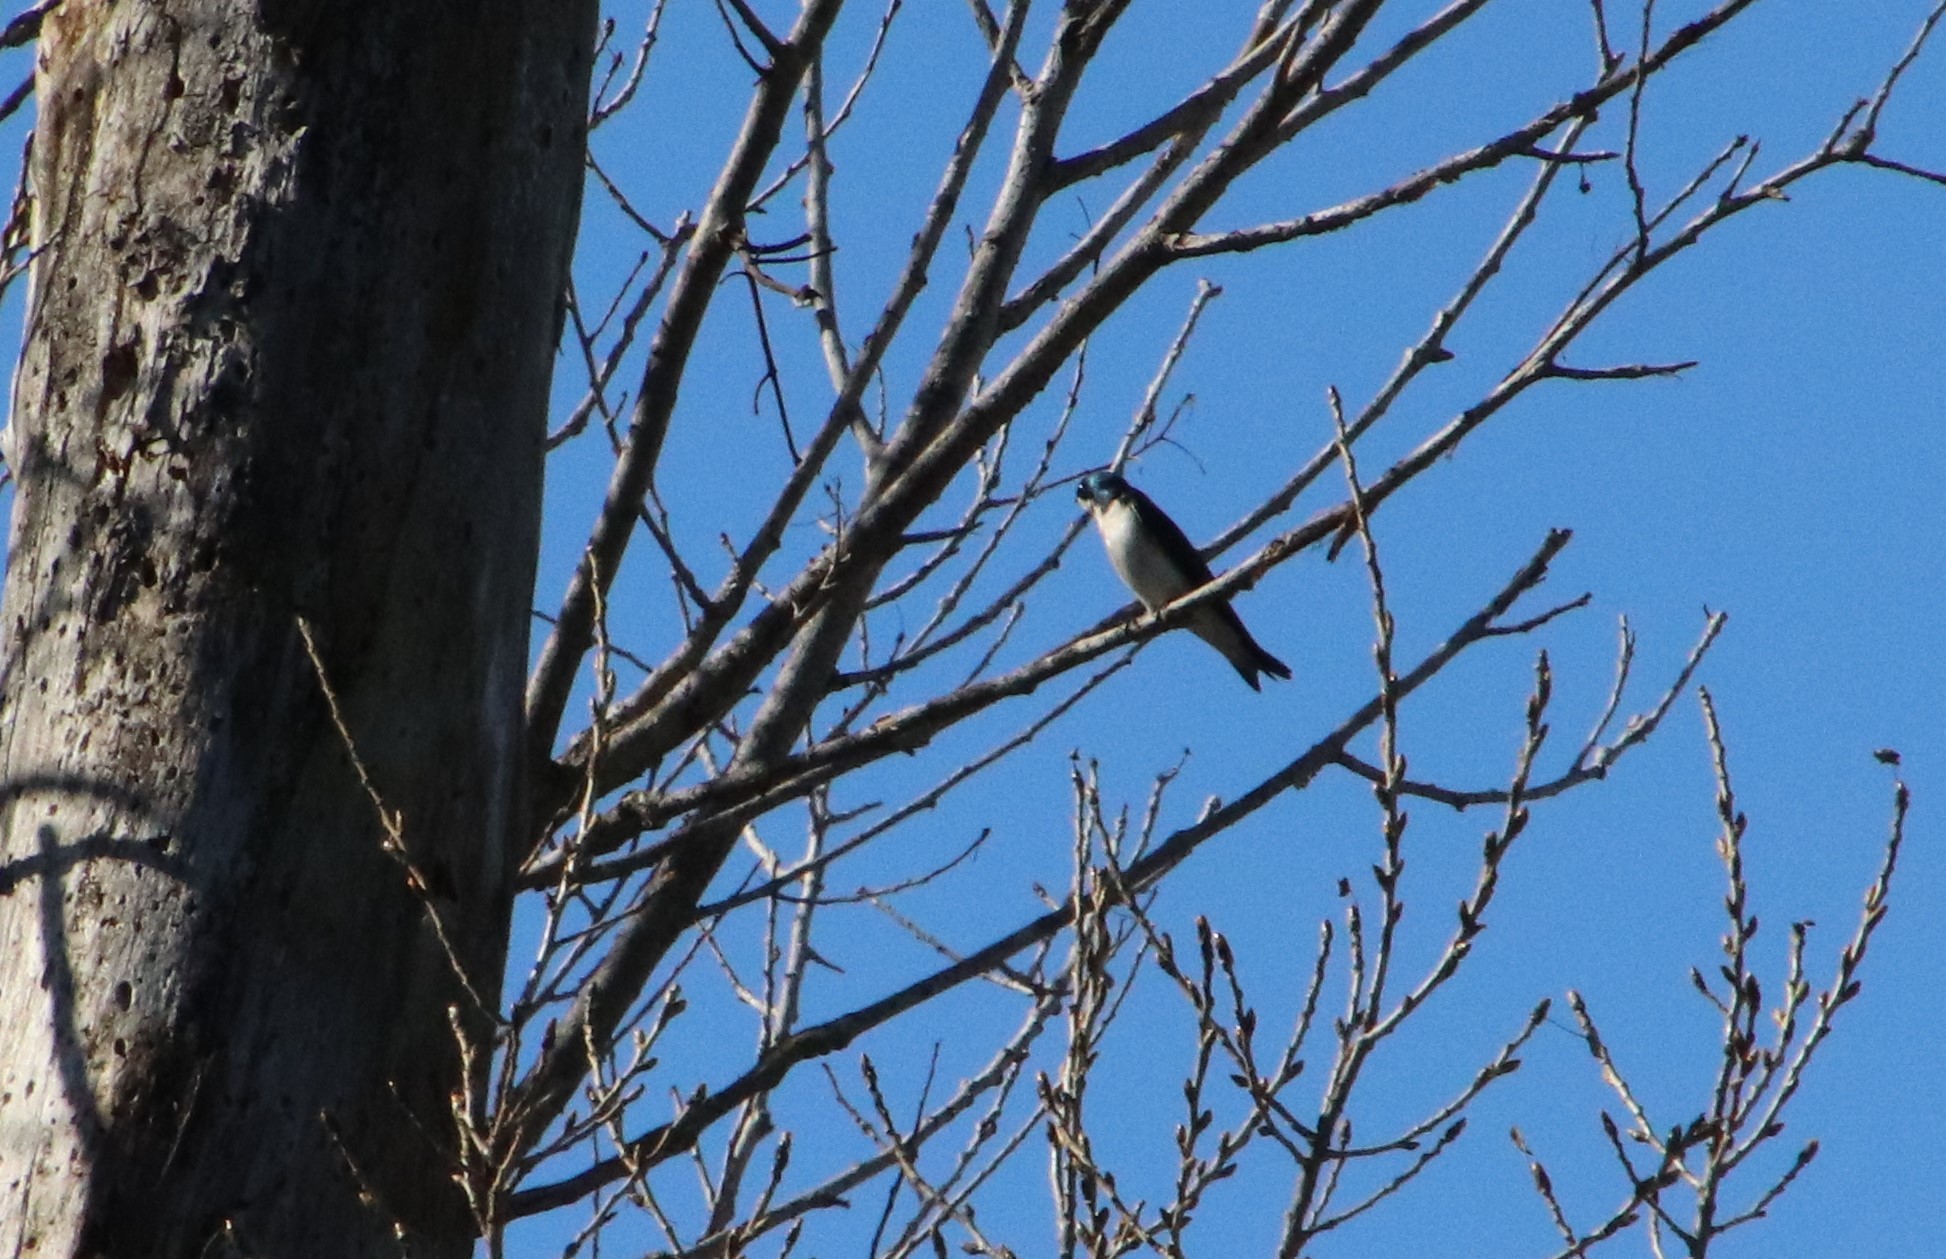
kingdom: Animalia
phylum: Chordata
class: Aves
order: Passeriformes
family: Hirundinidae
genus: Tachycineta
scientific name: Tachycineta bicolor
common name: Tree swallow
